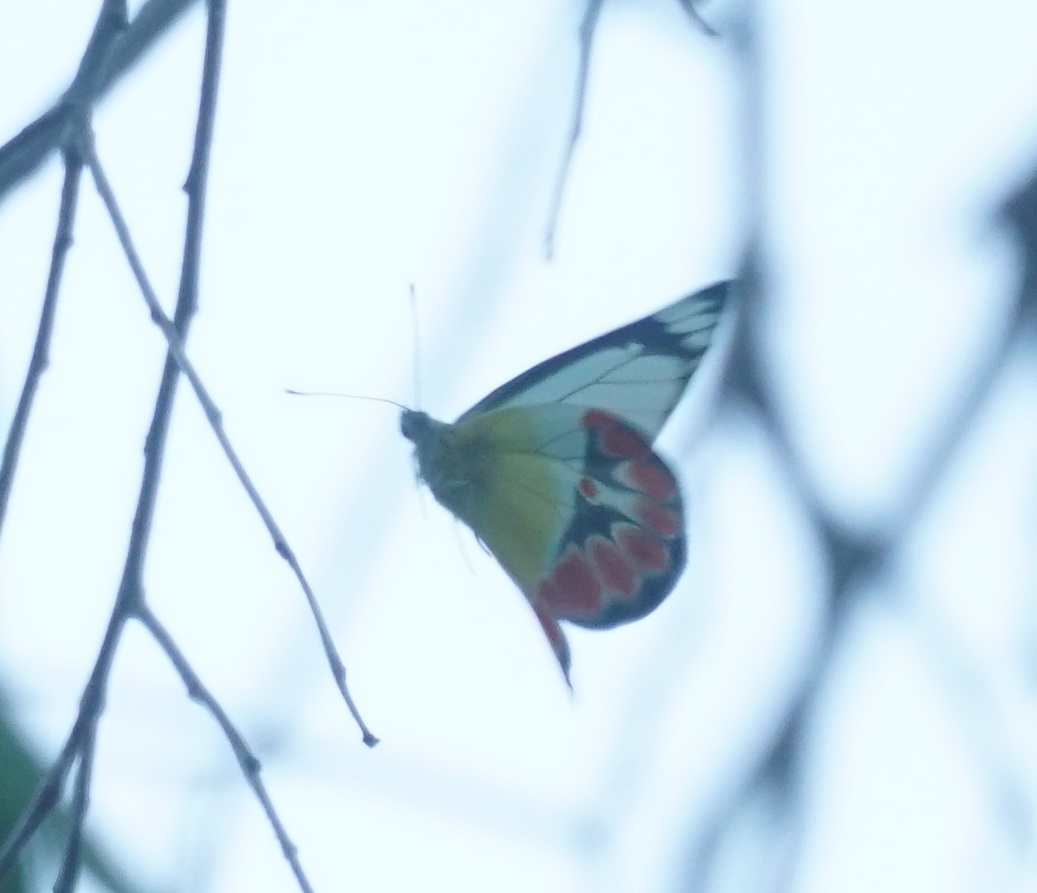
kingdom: Animalia
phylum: Arthropoda
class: Insecta
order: Lepidoptera
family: Pieridae
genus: Delias
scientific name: Delias argenthona
